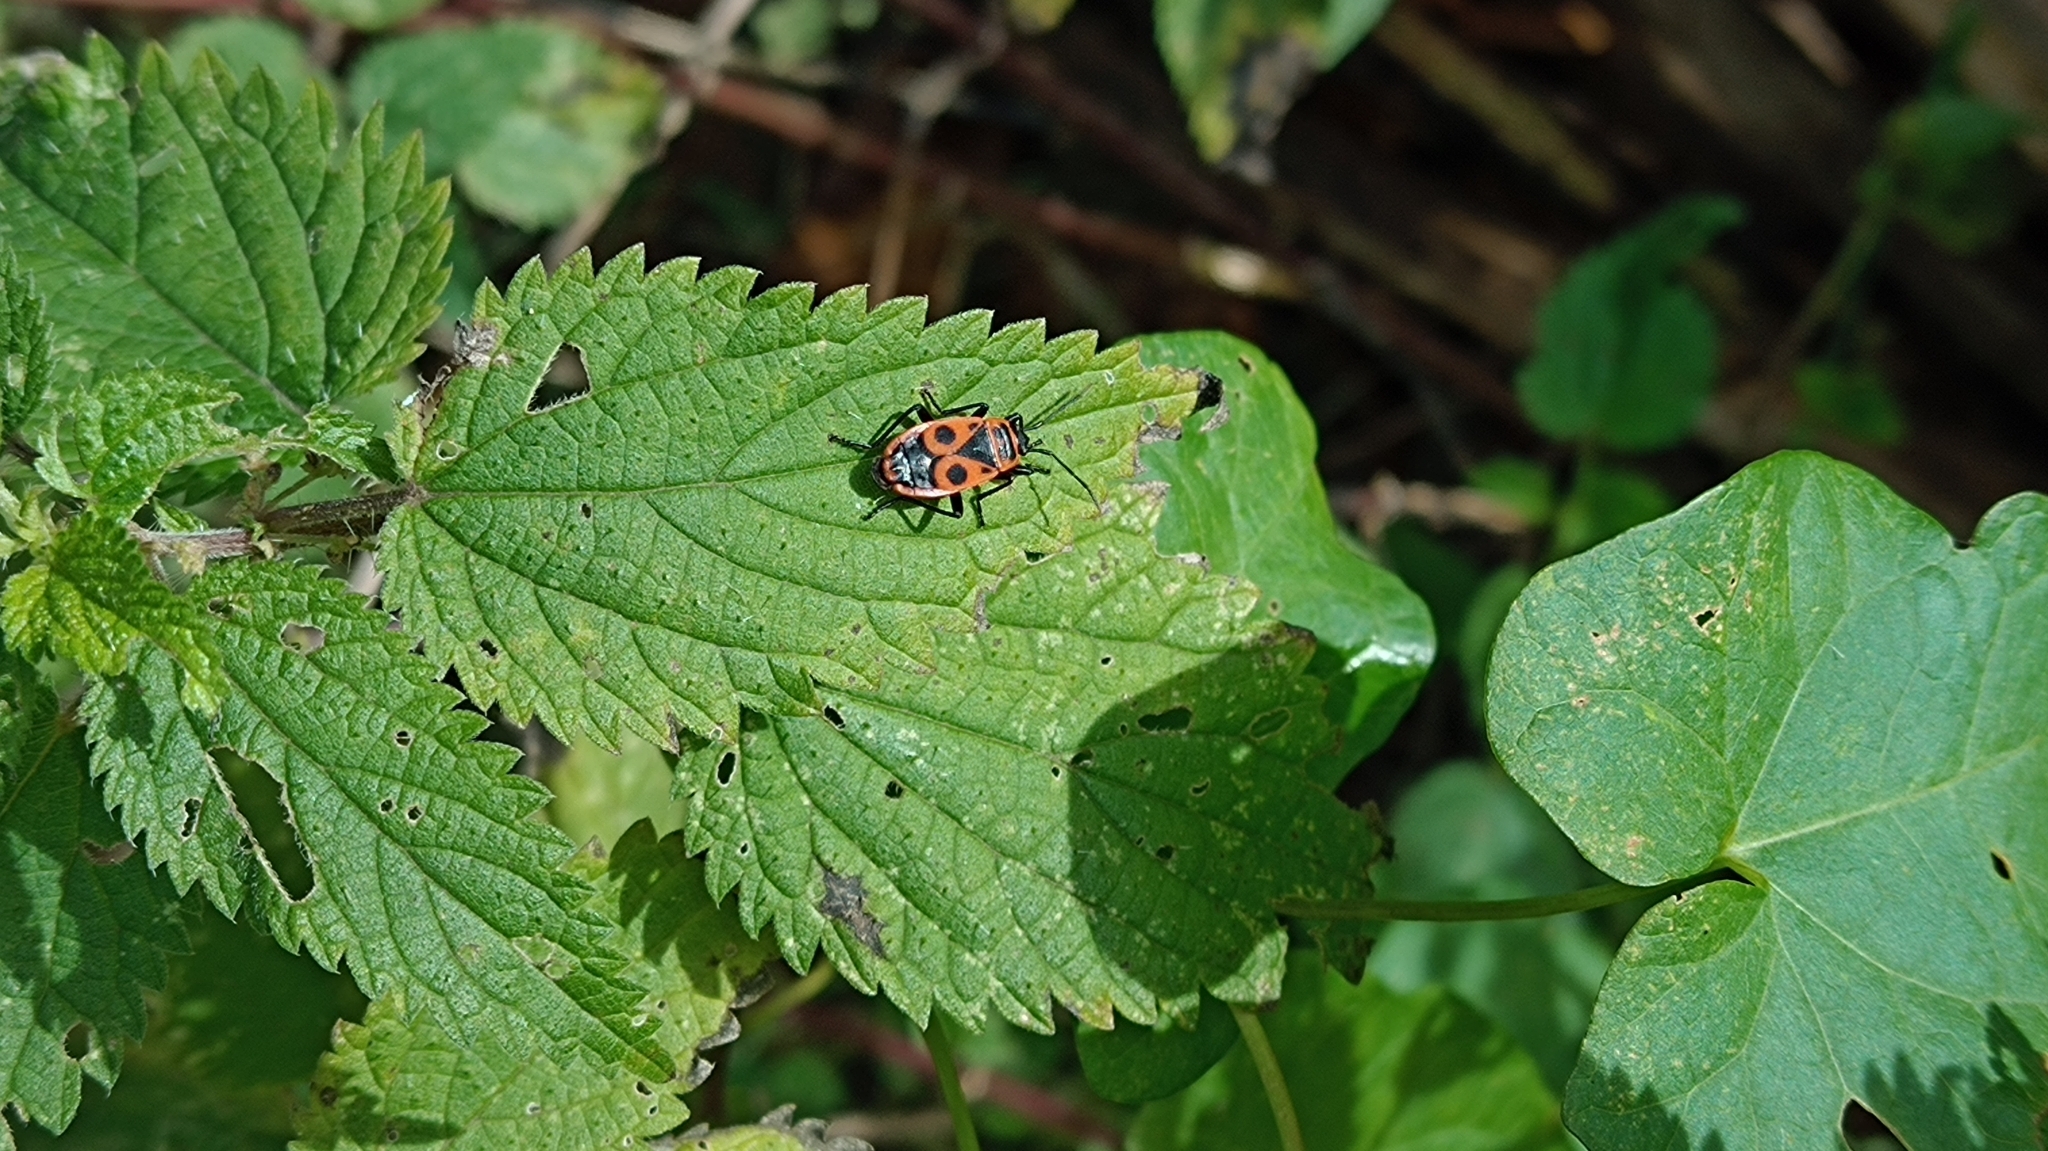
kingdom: Animalia
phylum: Arthropoda
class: Insecta
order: Hemiptera
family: Pyrrhocoridae
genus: Pyrrhocoris
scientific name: Pyrrhocoris apterus
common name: Firebug
